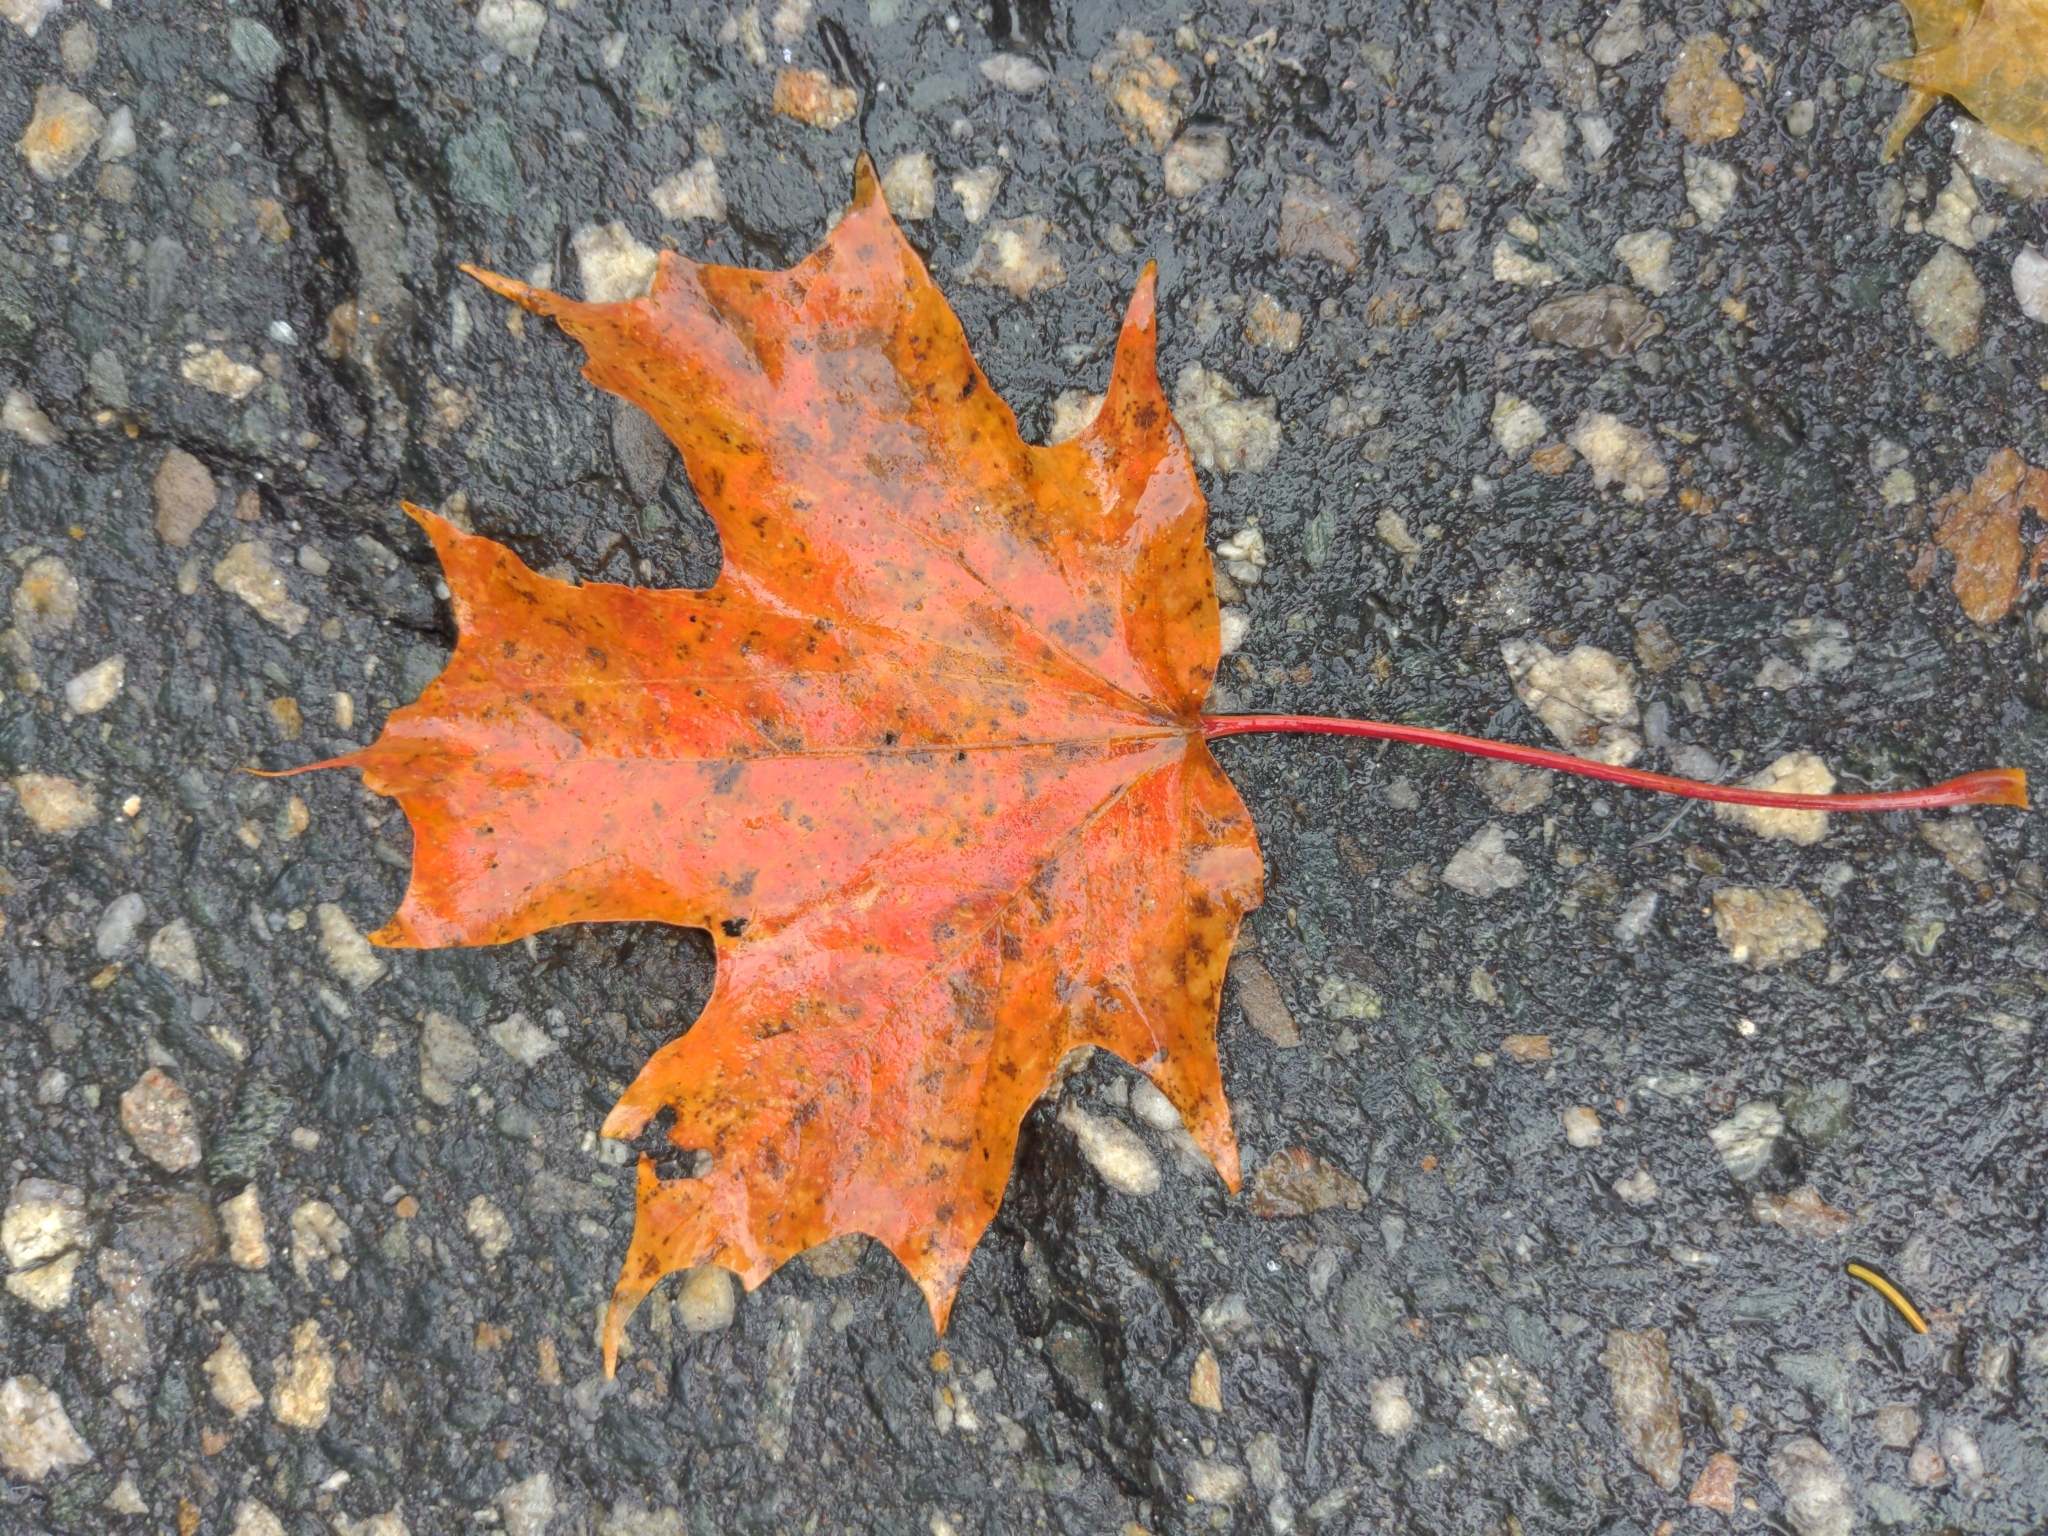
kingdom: Plantae
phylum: Tracheophyta
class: Magnoliopsida
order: Sapindales
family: Sapindaceae
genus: Acer
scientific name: Acer saccharum
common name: Sugar maple
